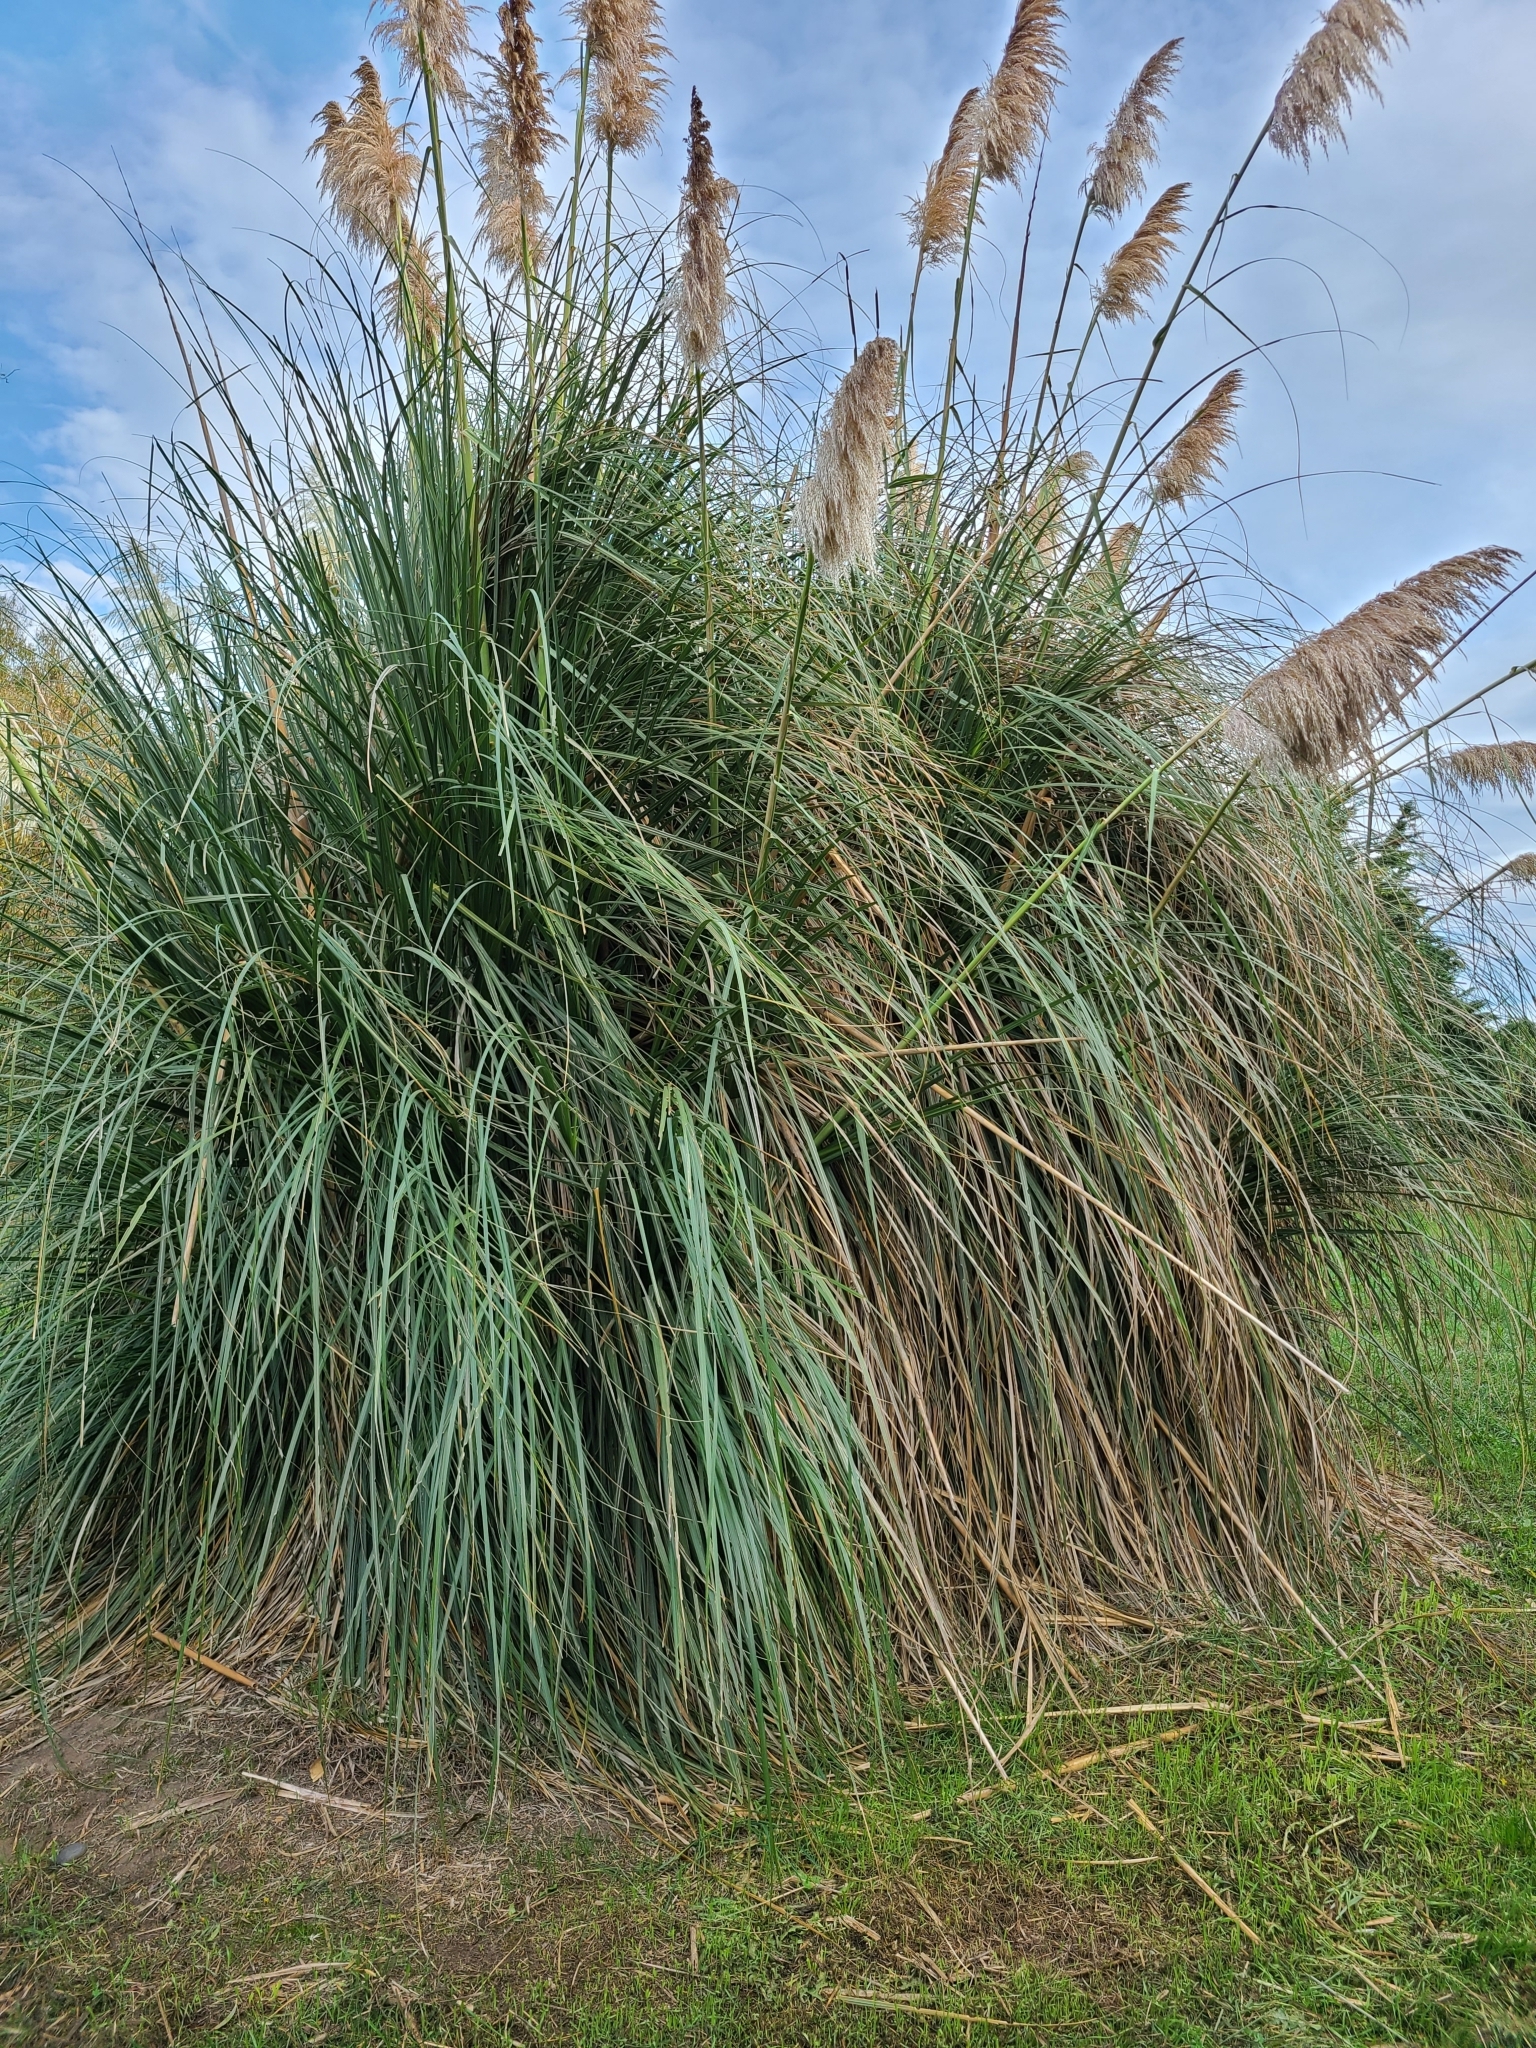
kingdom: Plantae
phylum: Tracheophyta
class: Liliopsida
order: Poales
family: Poaceae
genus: Cortaderia
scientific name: Cortaderia selloana
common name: Uruguayan pampas grass
